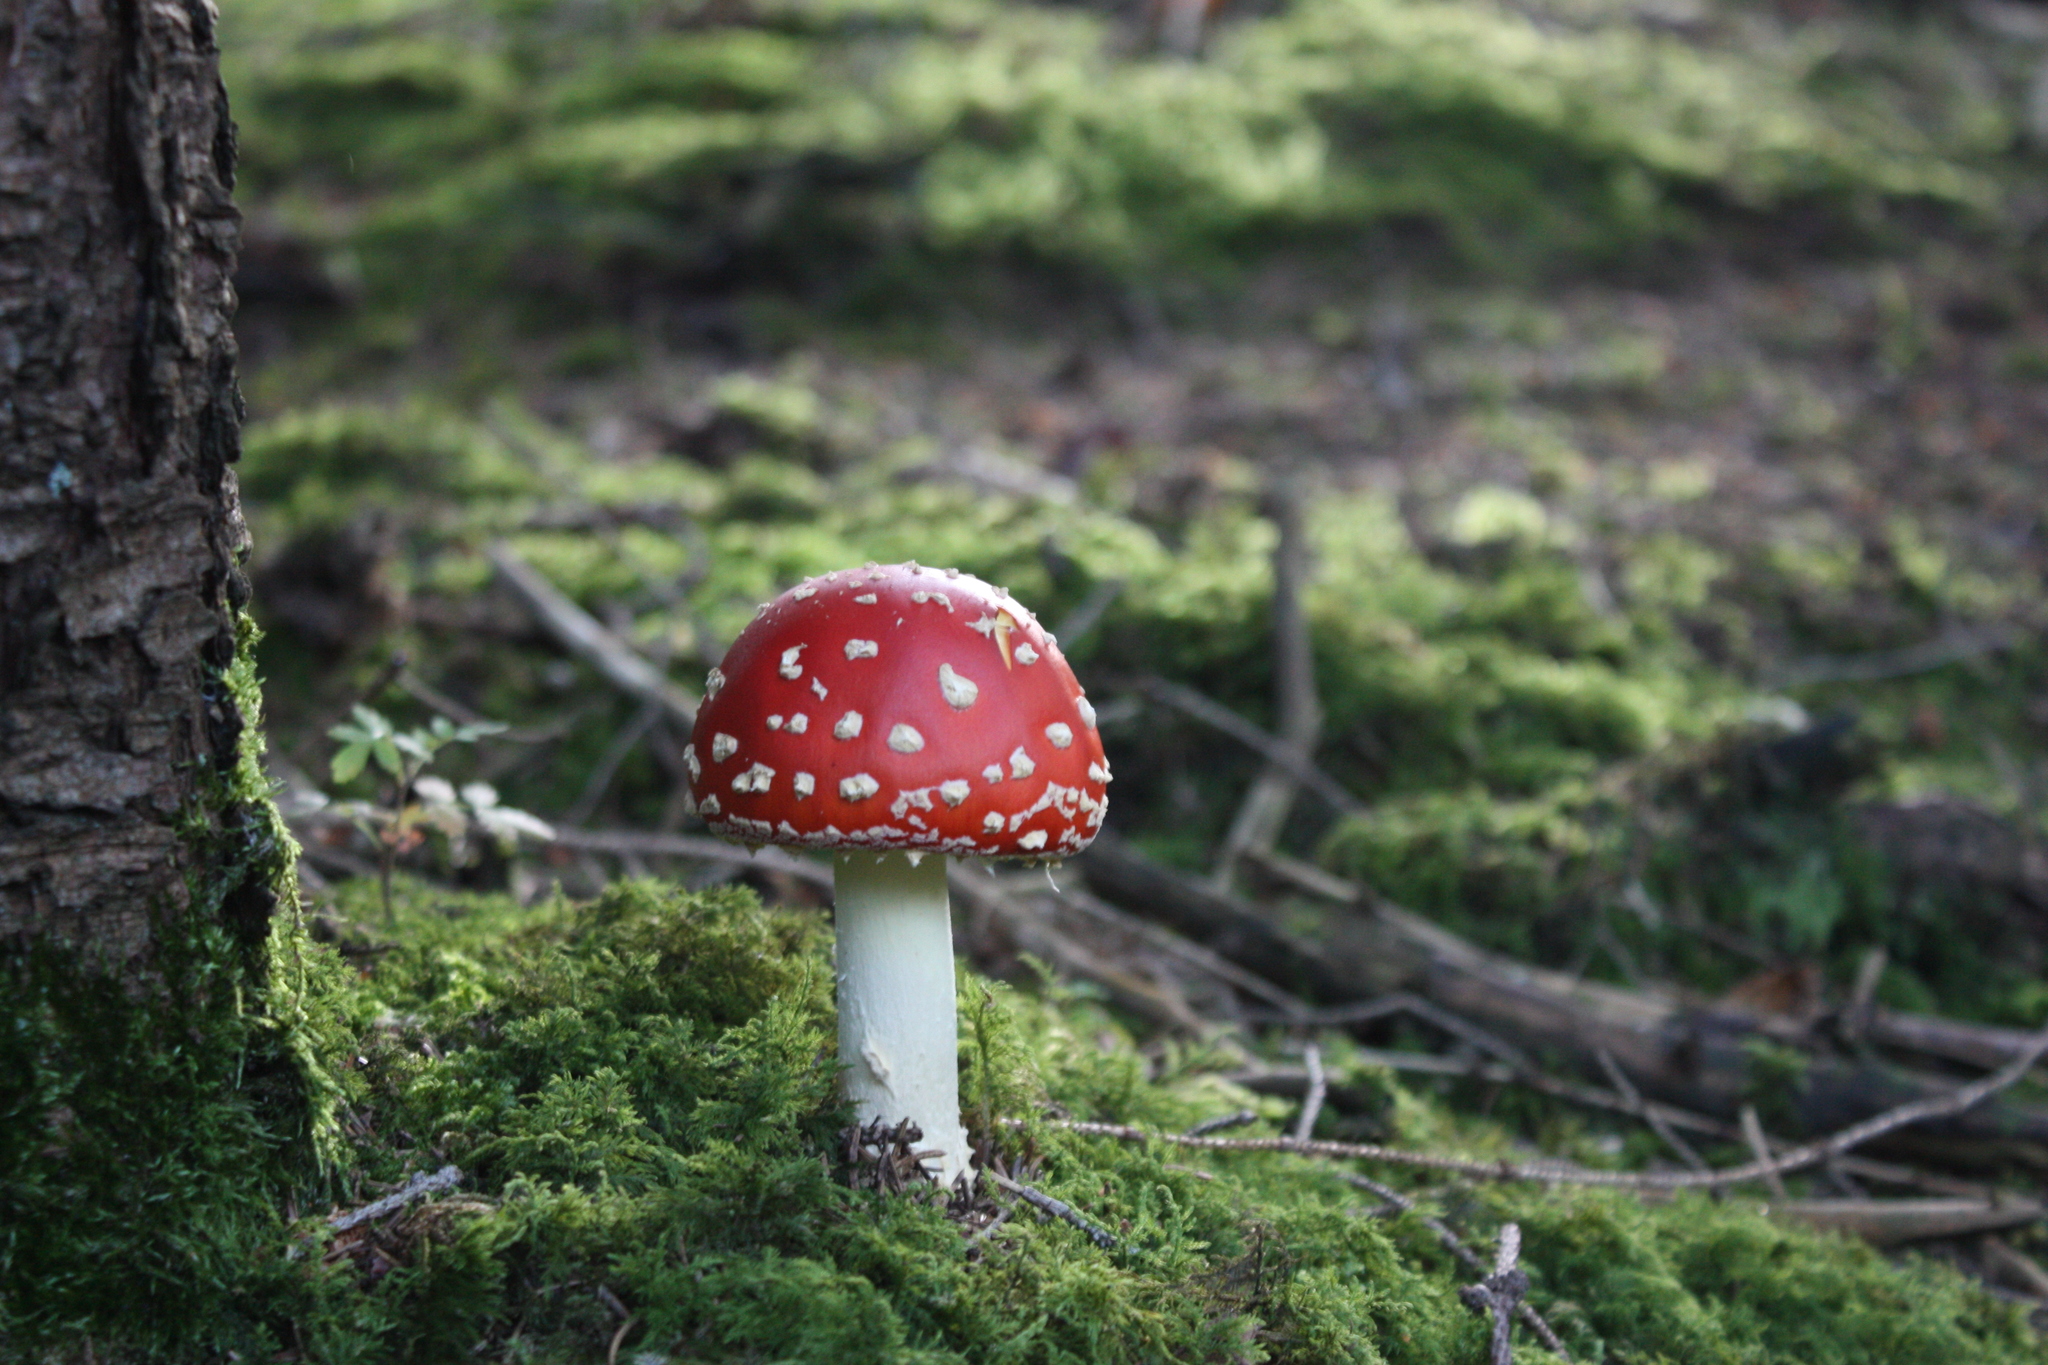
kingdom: Fungi
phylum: Basidiomycota
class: Agaricomycetes
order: Agaricales
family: Amanitaceae
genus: Amanita
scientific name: Amanita muscaria
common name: Fly agaric
